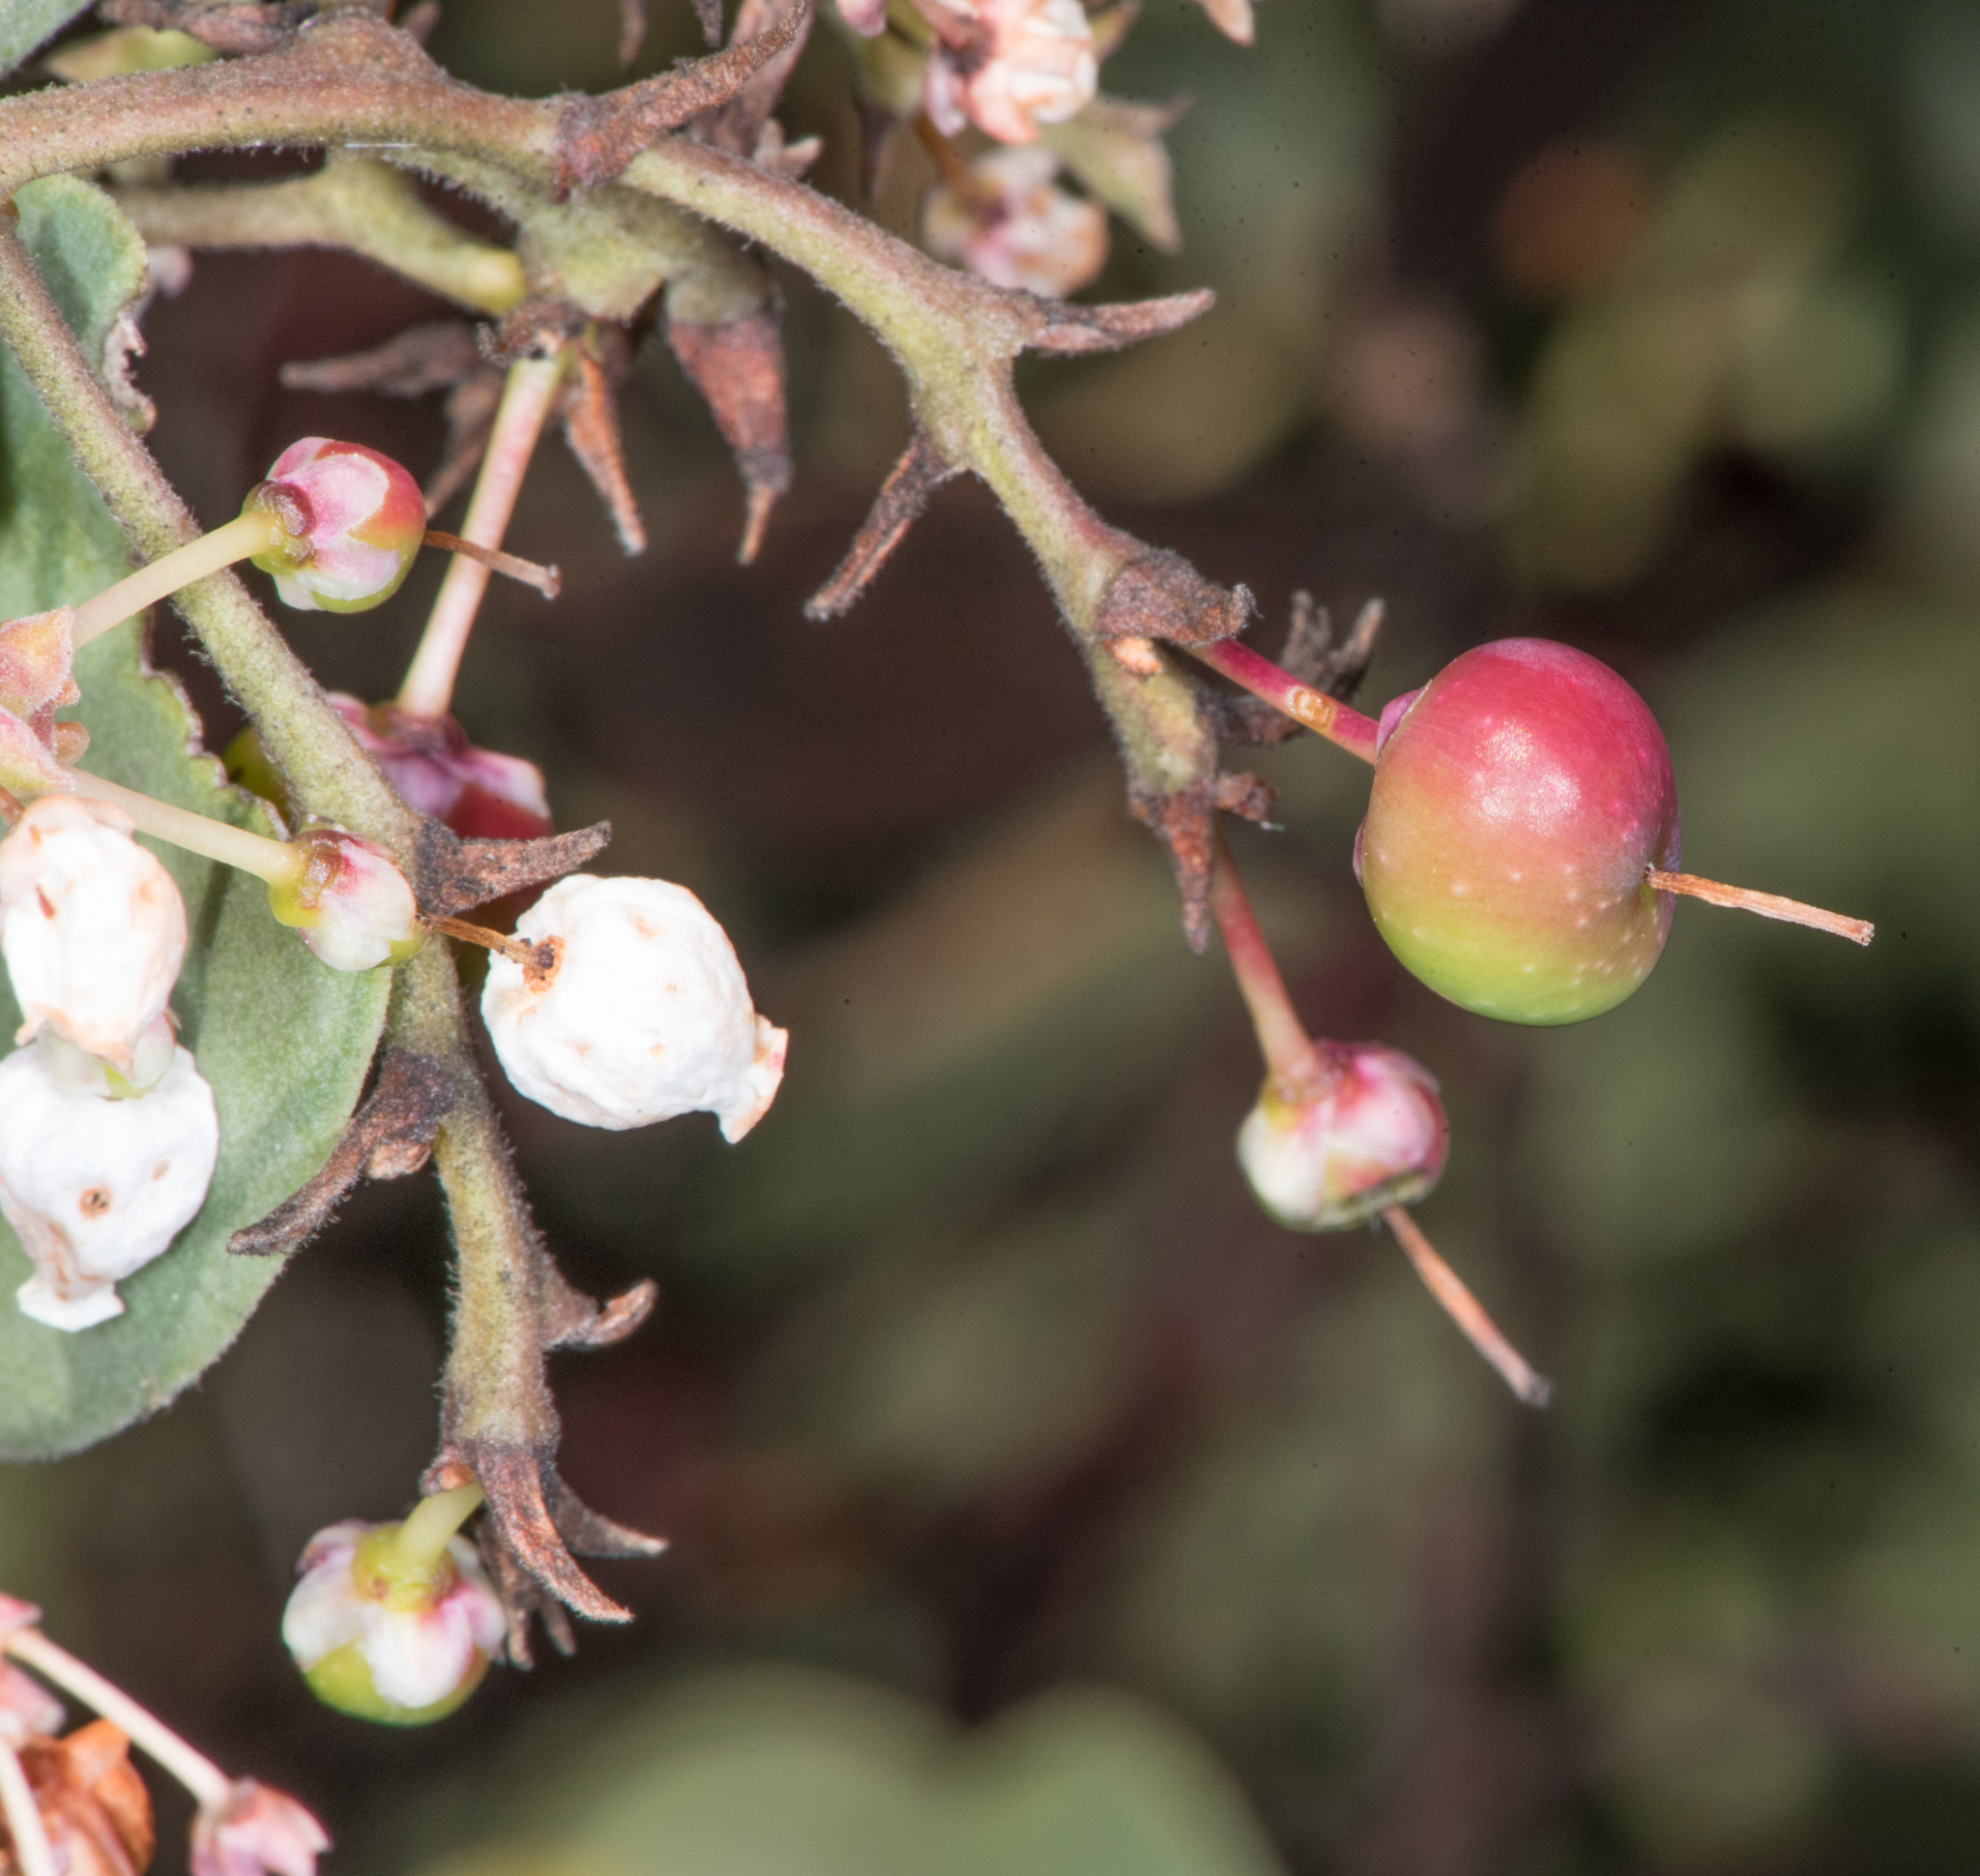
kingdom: Plantae
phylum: Tracheophyta
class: Magnoliopsida
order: Ericales
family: Ericaceae
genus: Arctostaphylos
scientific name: Arctostaphylos viscida
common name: White-leaf manzanita
